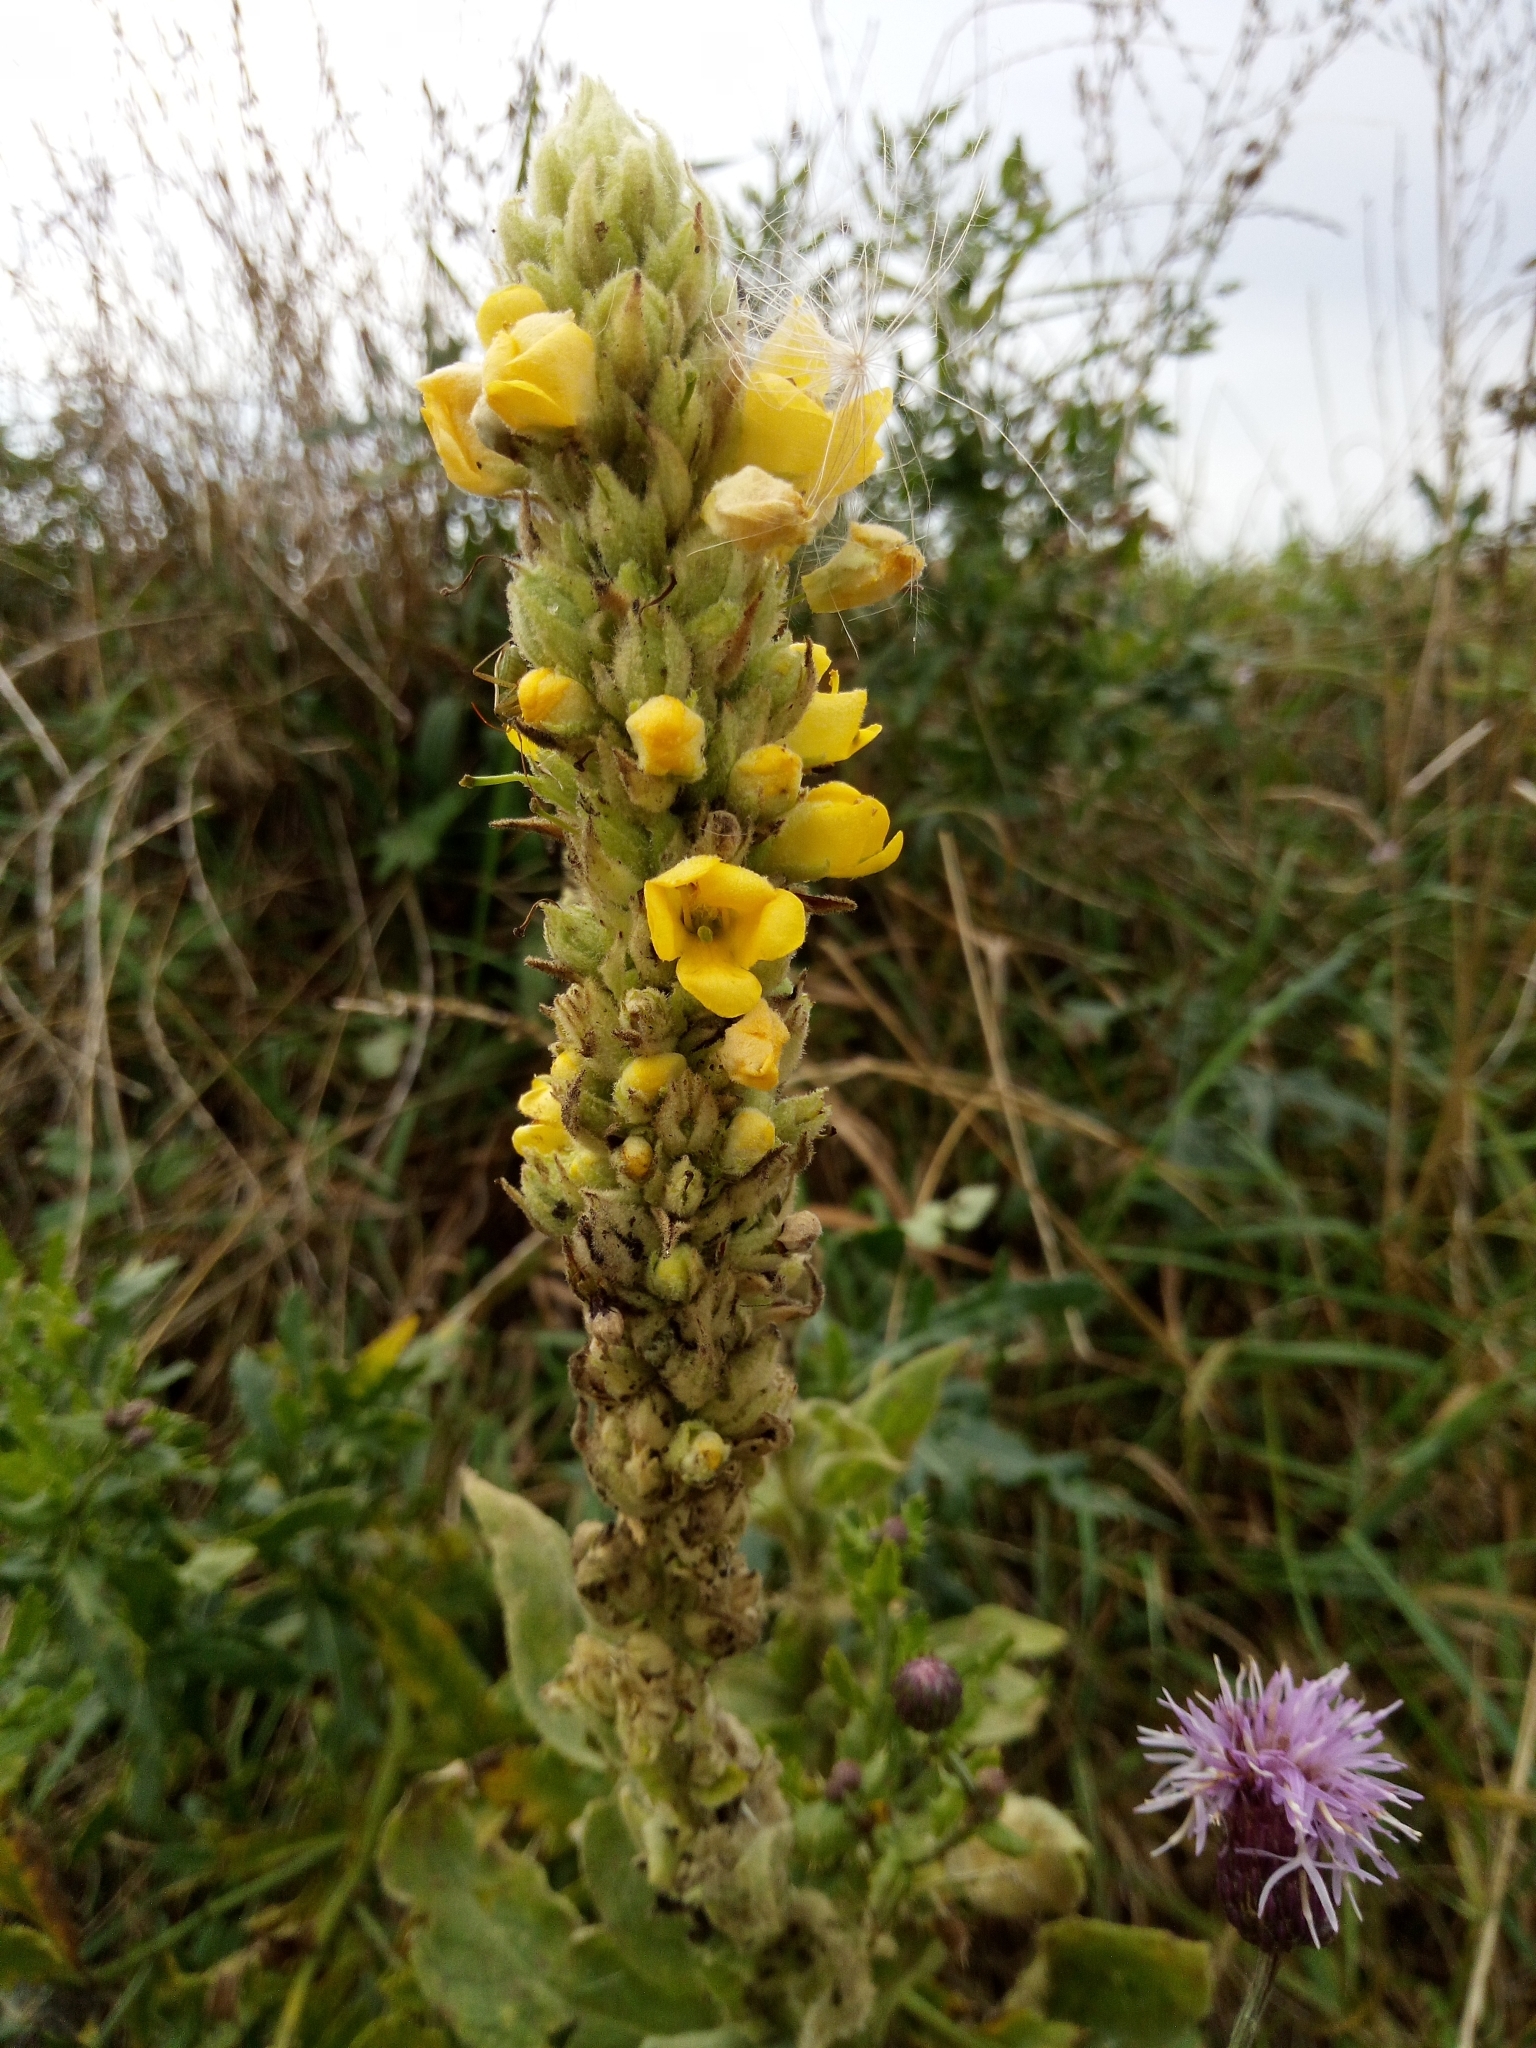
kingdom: Plantae
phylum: Tracheophyta
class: Magnoliopsida
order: Lamiales
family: Scrophulariaceae
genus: Verbascum
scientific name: Verbascum thapsus
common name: Common mullein
